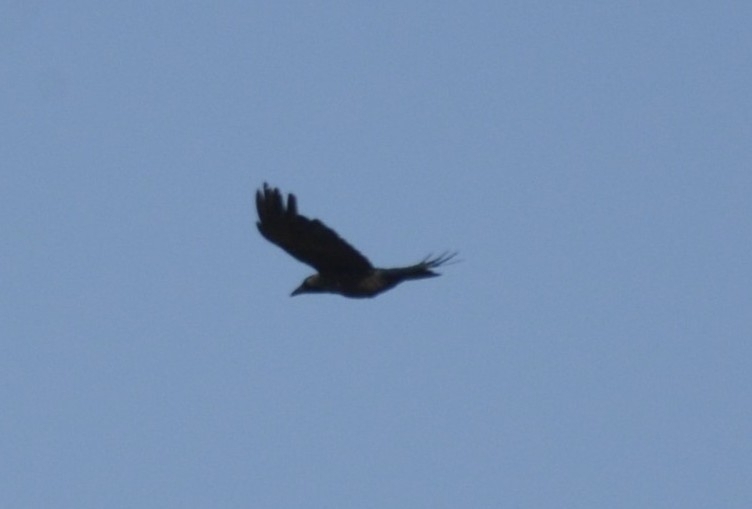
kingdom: Animalia
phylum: Chordata
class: Aves
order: Passeriformes
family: Corvidae
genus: Corvus
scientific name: Corvus splendens
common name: House crow
